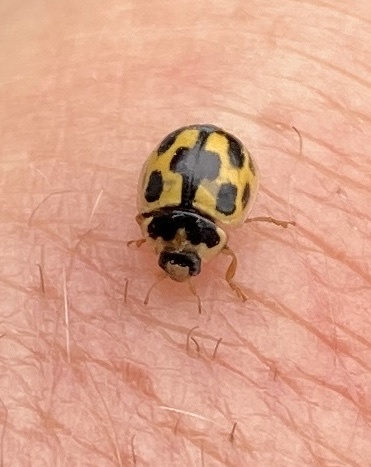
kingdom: Animalia
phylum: Arthropoda
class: Insecta
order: Coleoptera
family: Coccinellidae
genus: Propylaea
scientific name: Propylaea quatuordecimpunctata
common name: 14-spotted ladybird beetle
